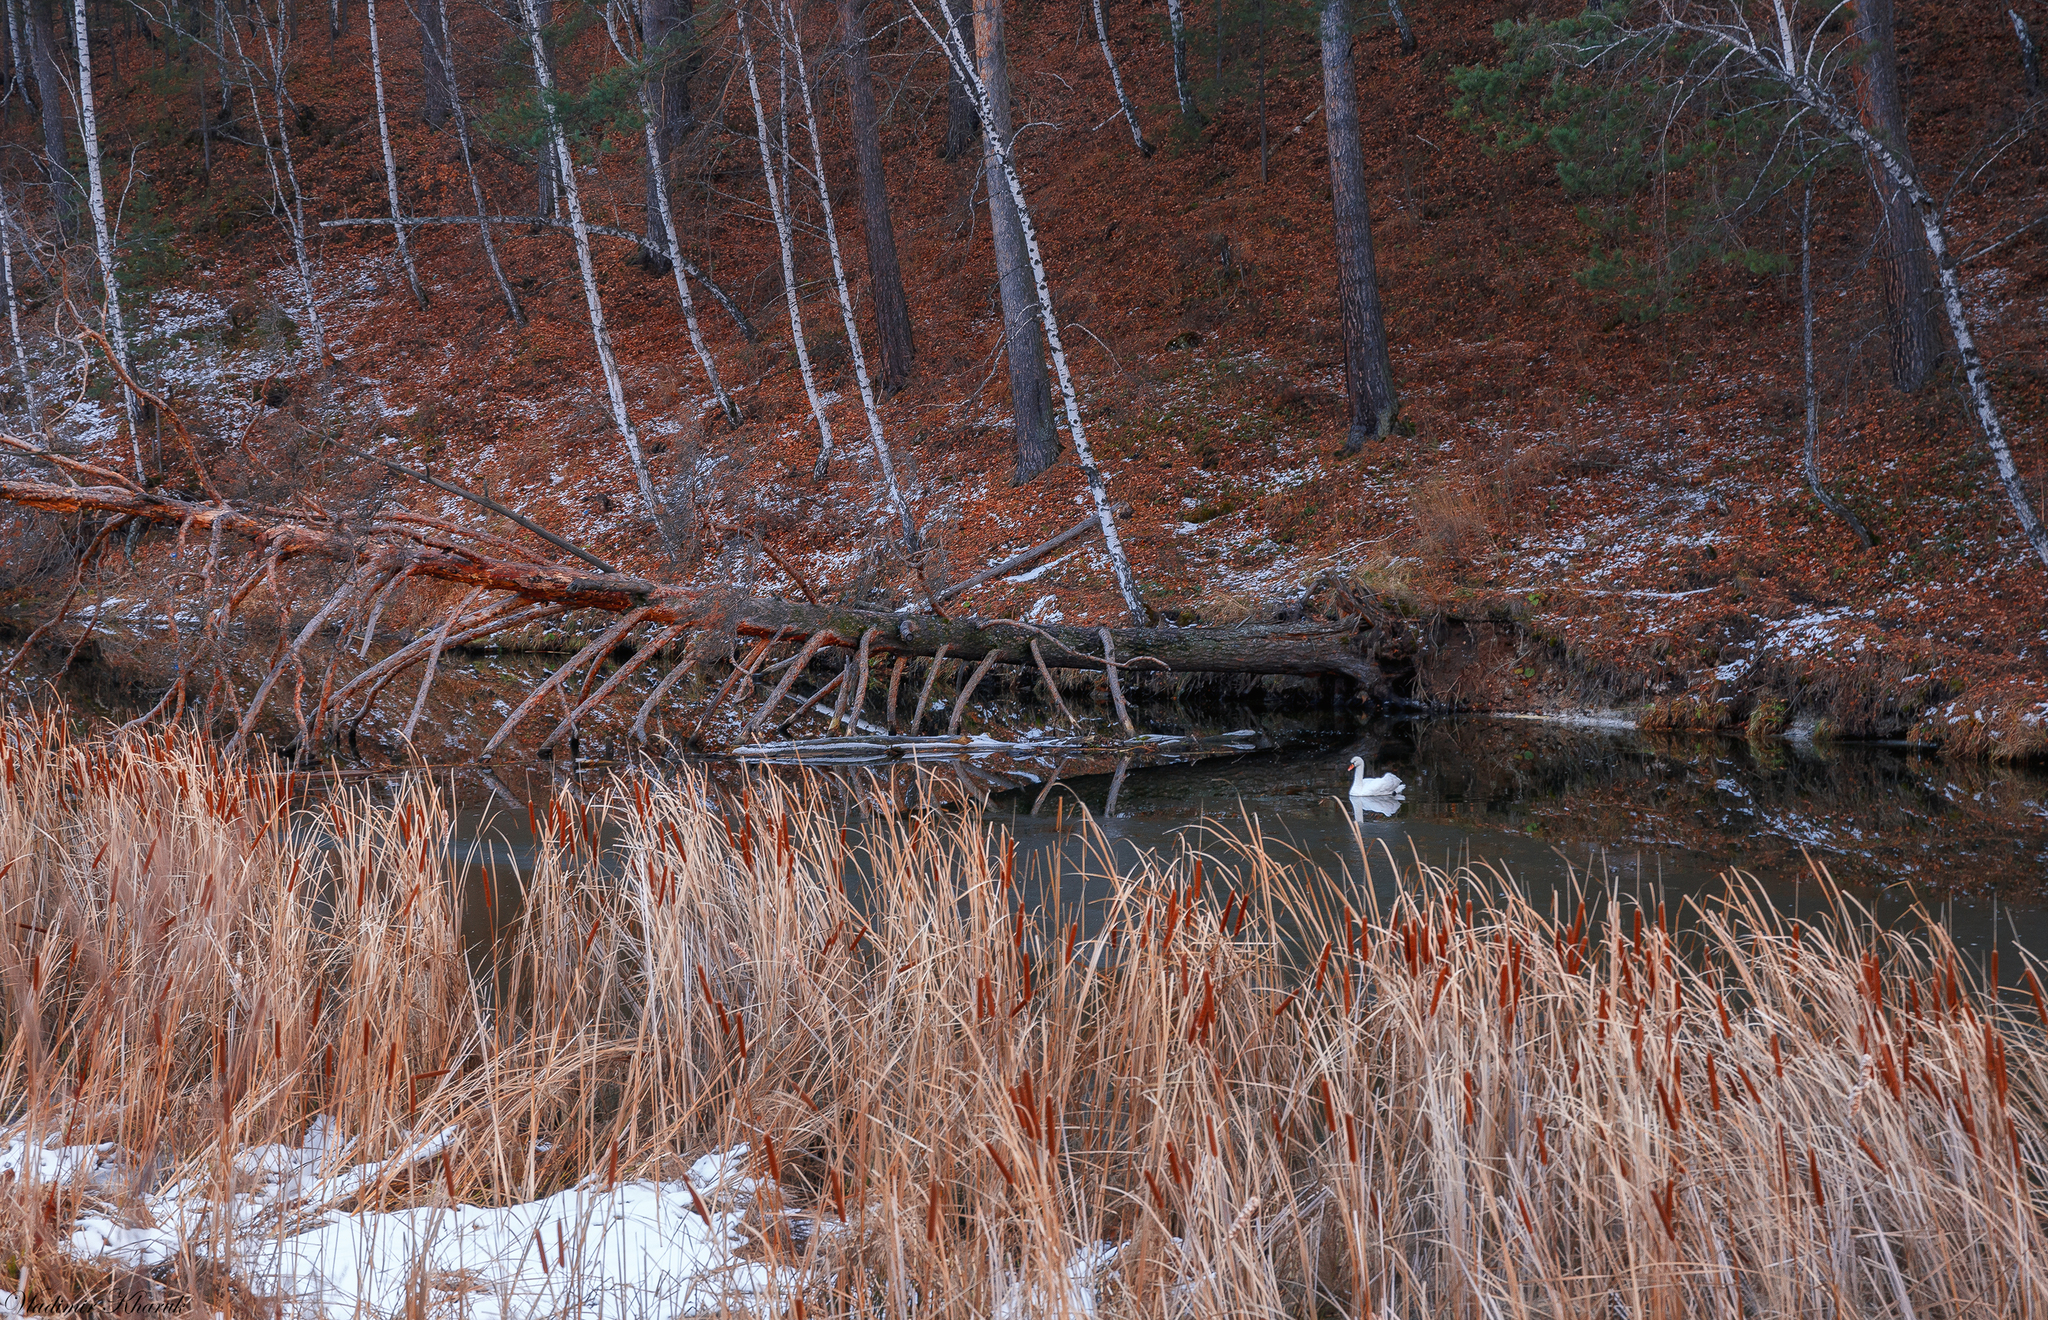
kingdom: Animalia
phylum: Chordata
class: Aves
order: Anseriformes
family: Anatidae
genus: Cygnus
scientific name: Cygnus olor
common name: Mute swan
